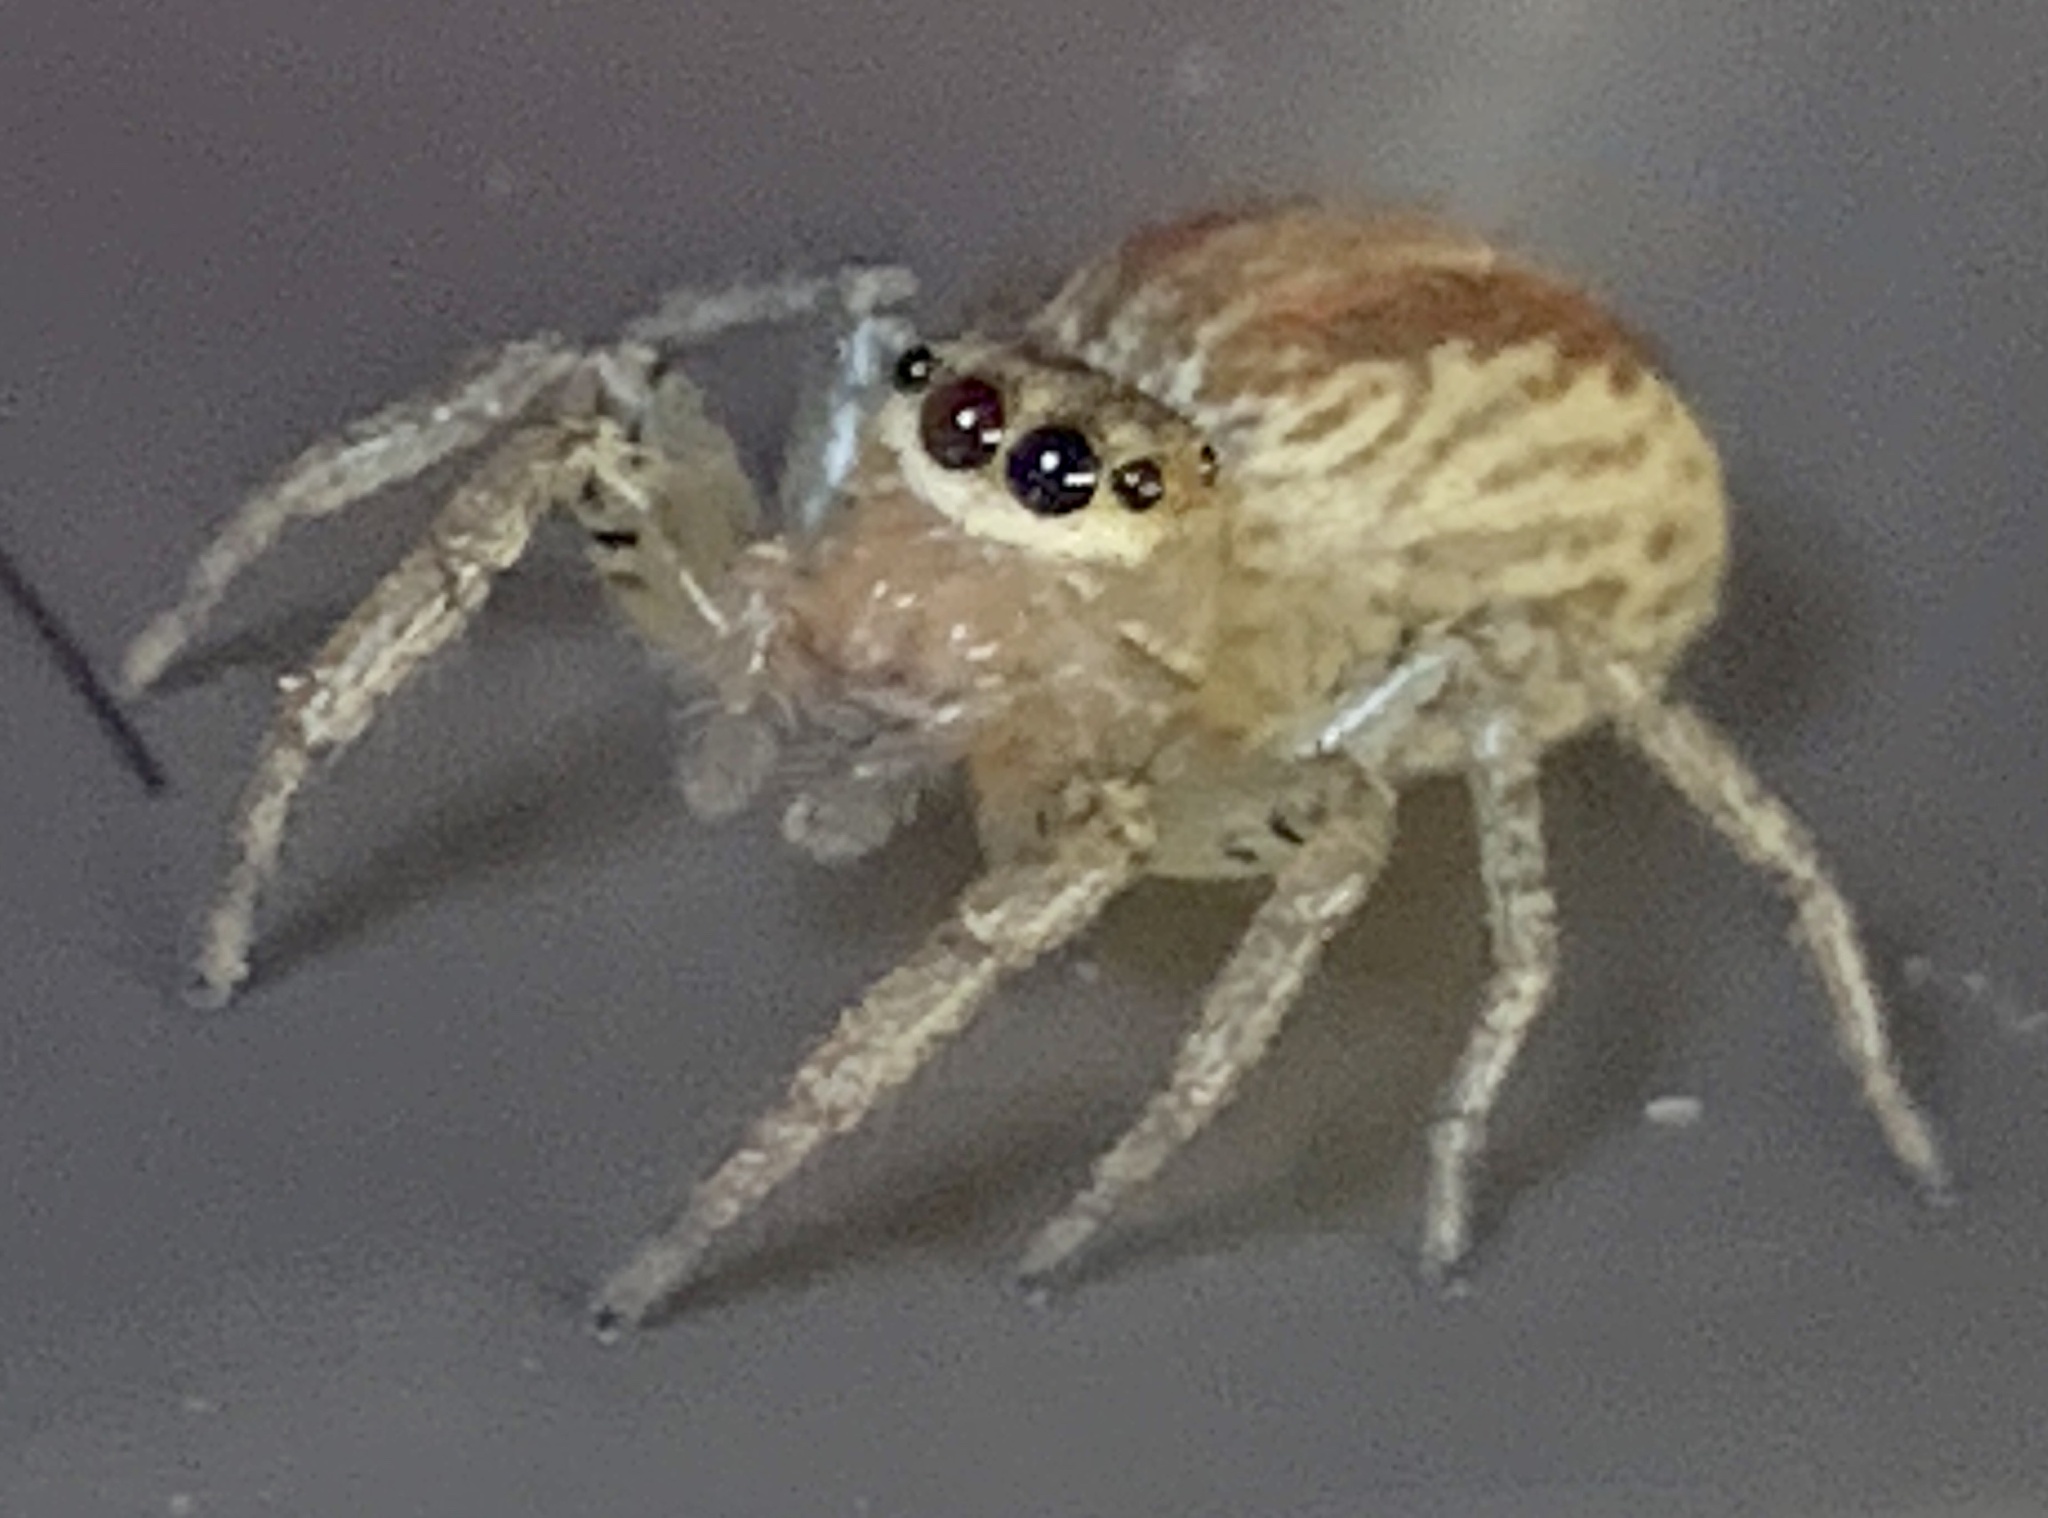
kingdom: Animalia
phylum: Arthropoda
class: Arachnida
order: Araneae
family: Salticidae
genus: Maevia
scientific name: Maevia inclemens
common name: Dimorphic jumper
